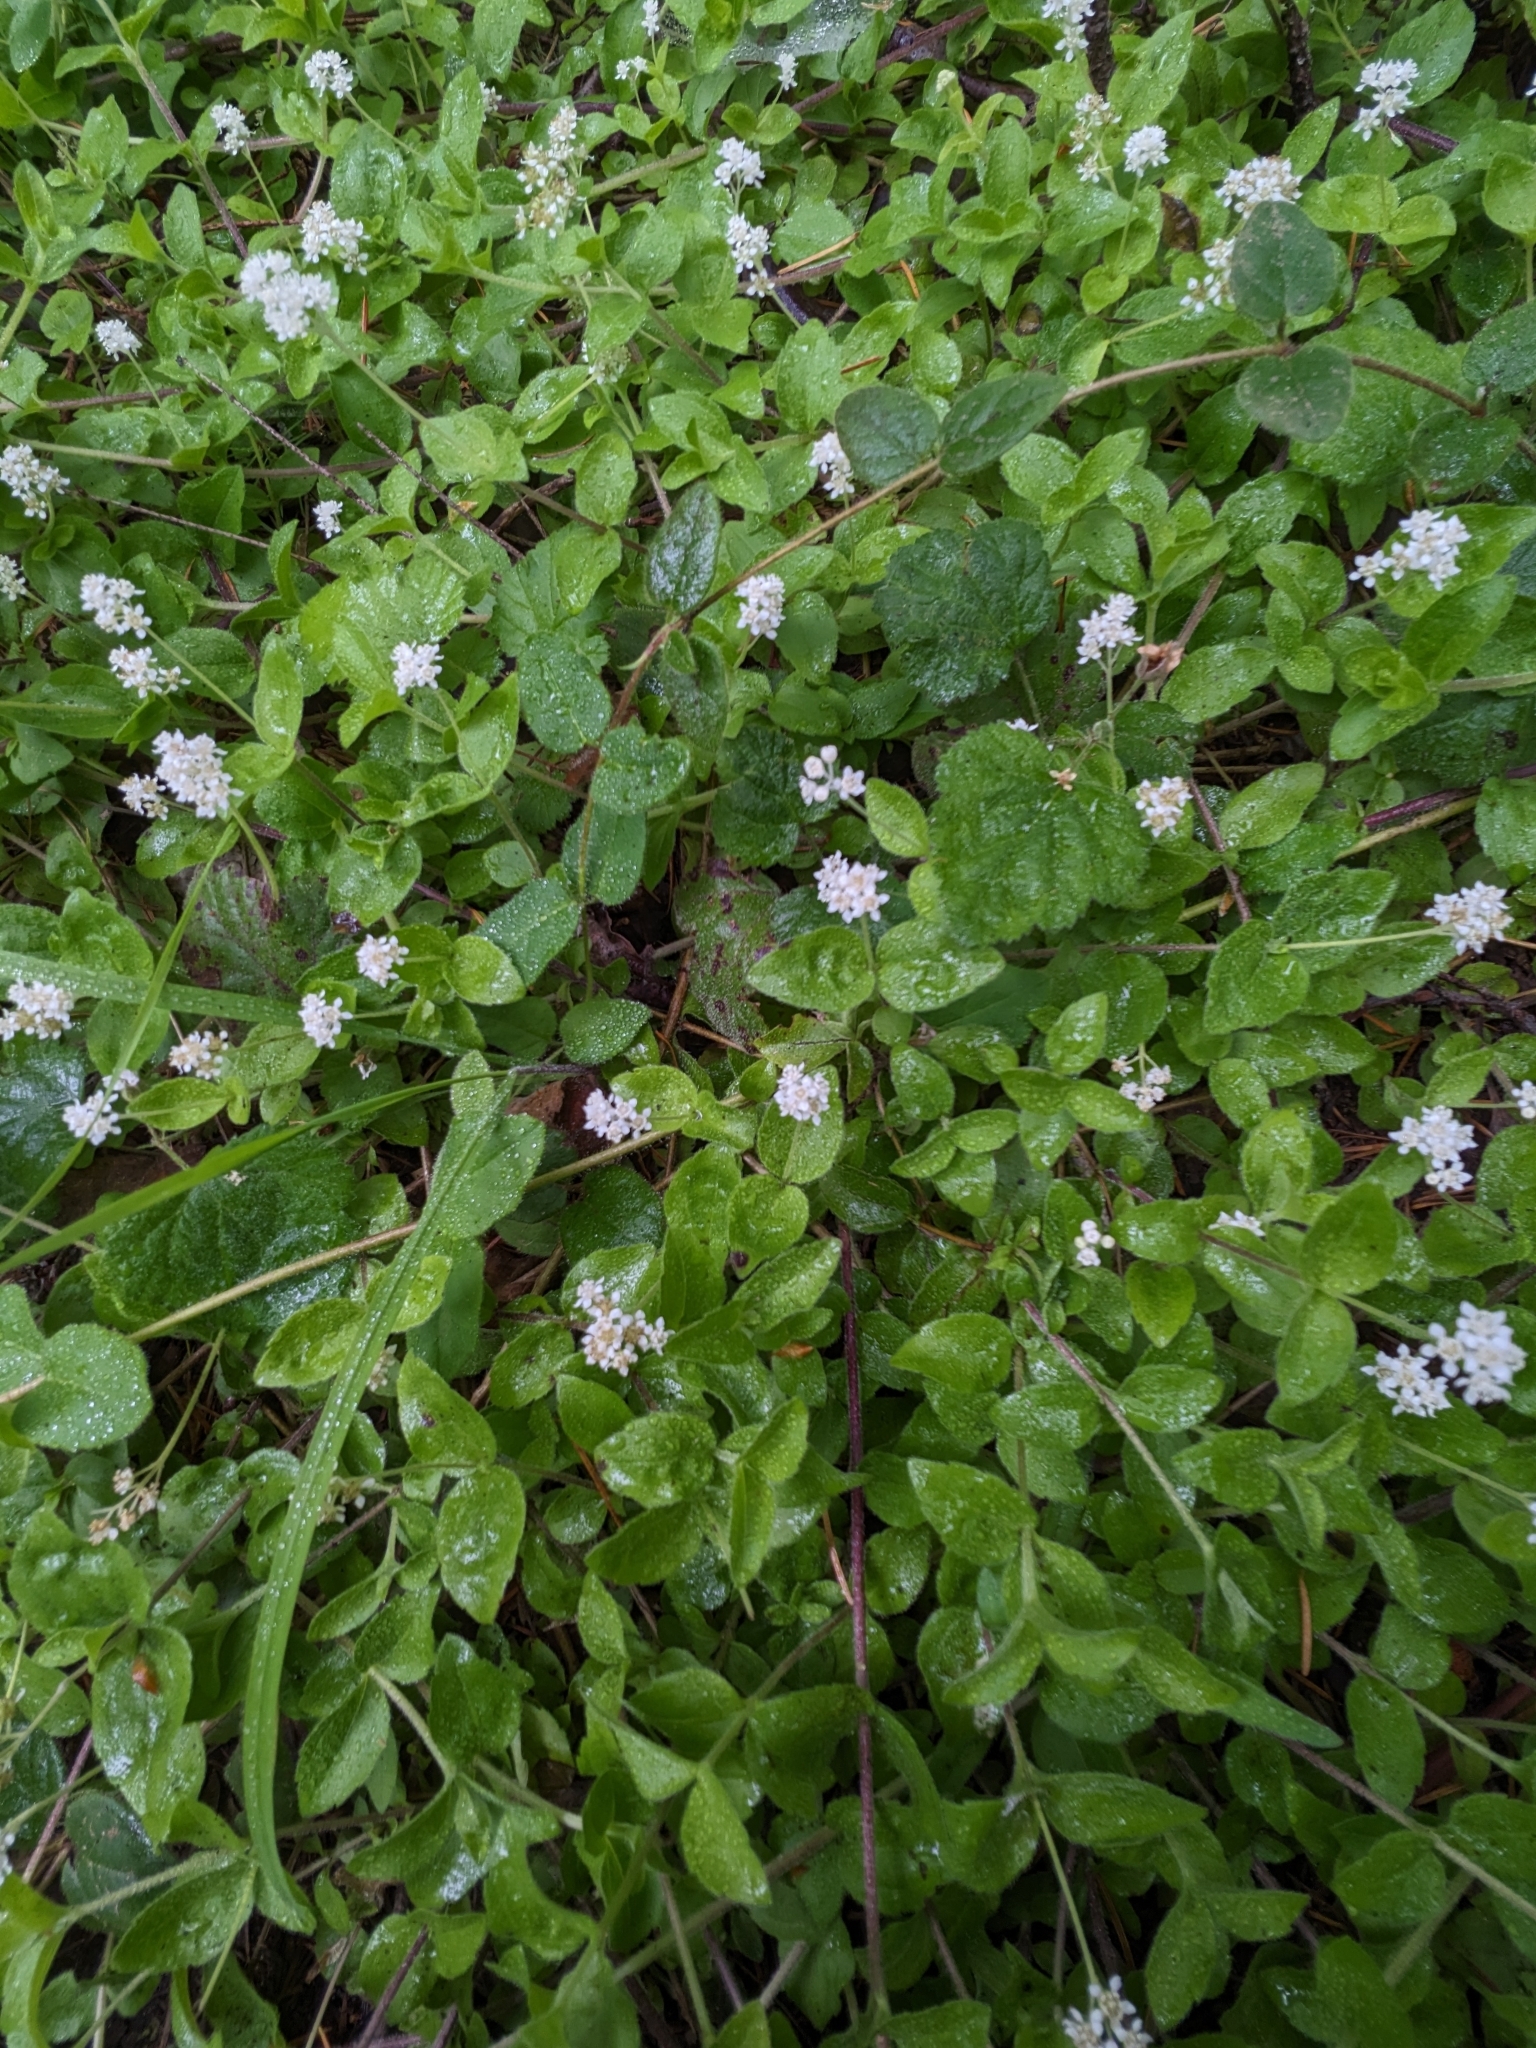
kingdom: Plantae
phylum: Tracheophyta
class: Magnoliopsida
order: Cornales
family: Hydrangeaceae
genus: Whipplea
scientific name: Whipplea modesta
